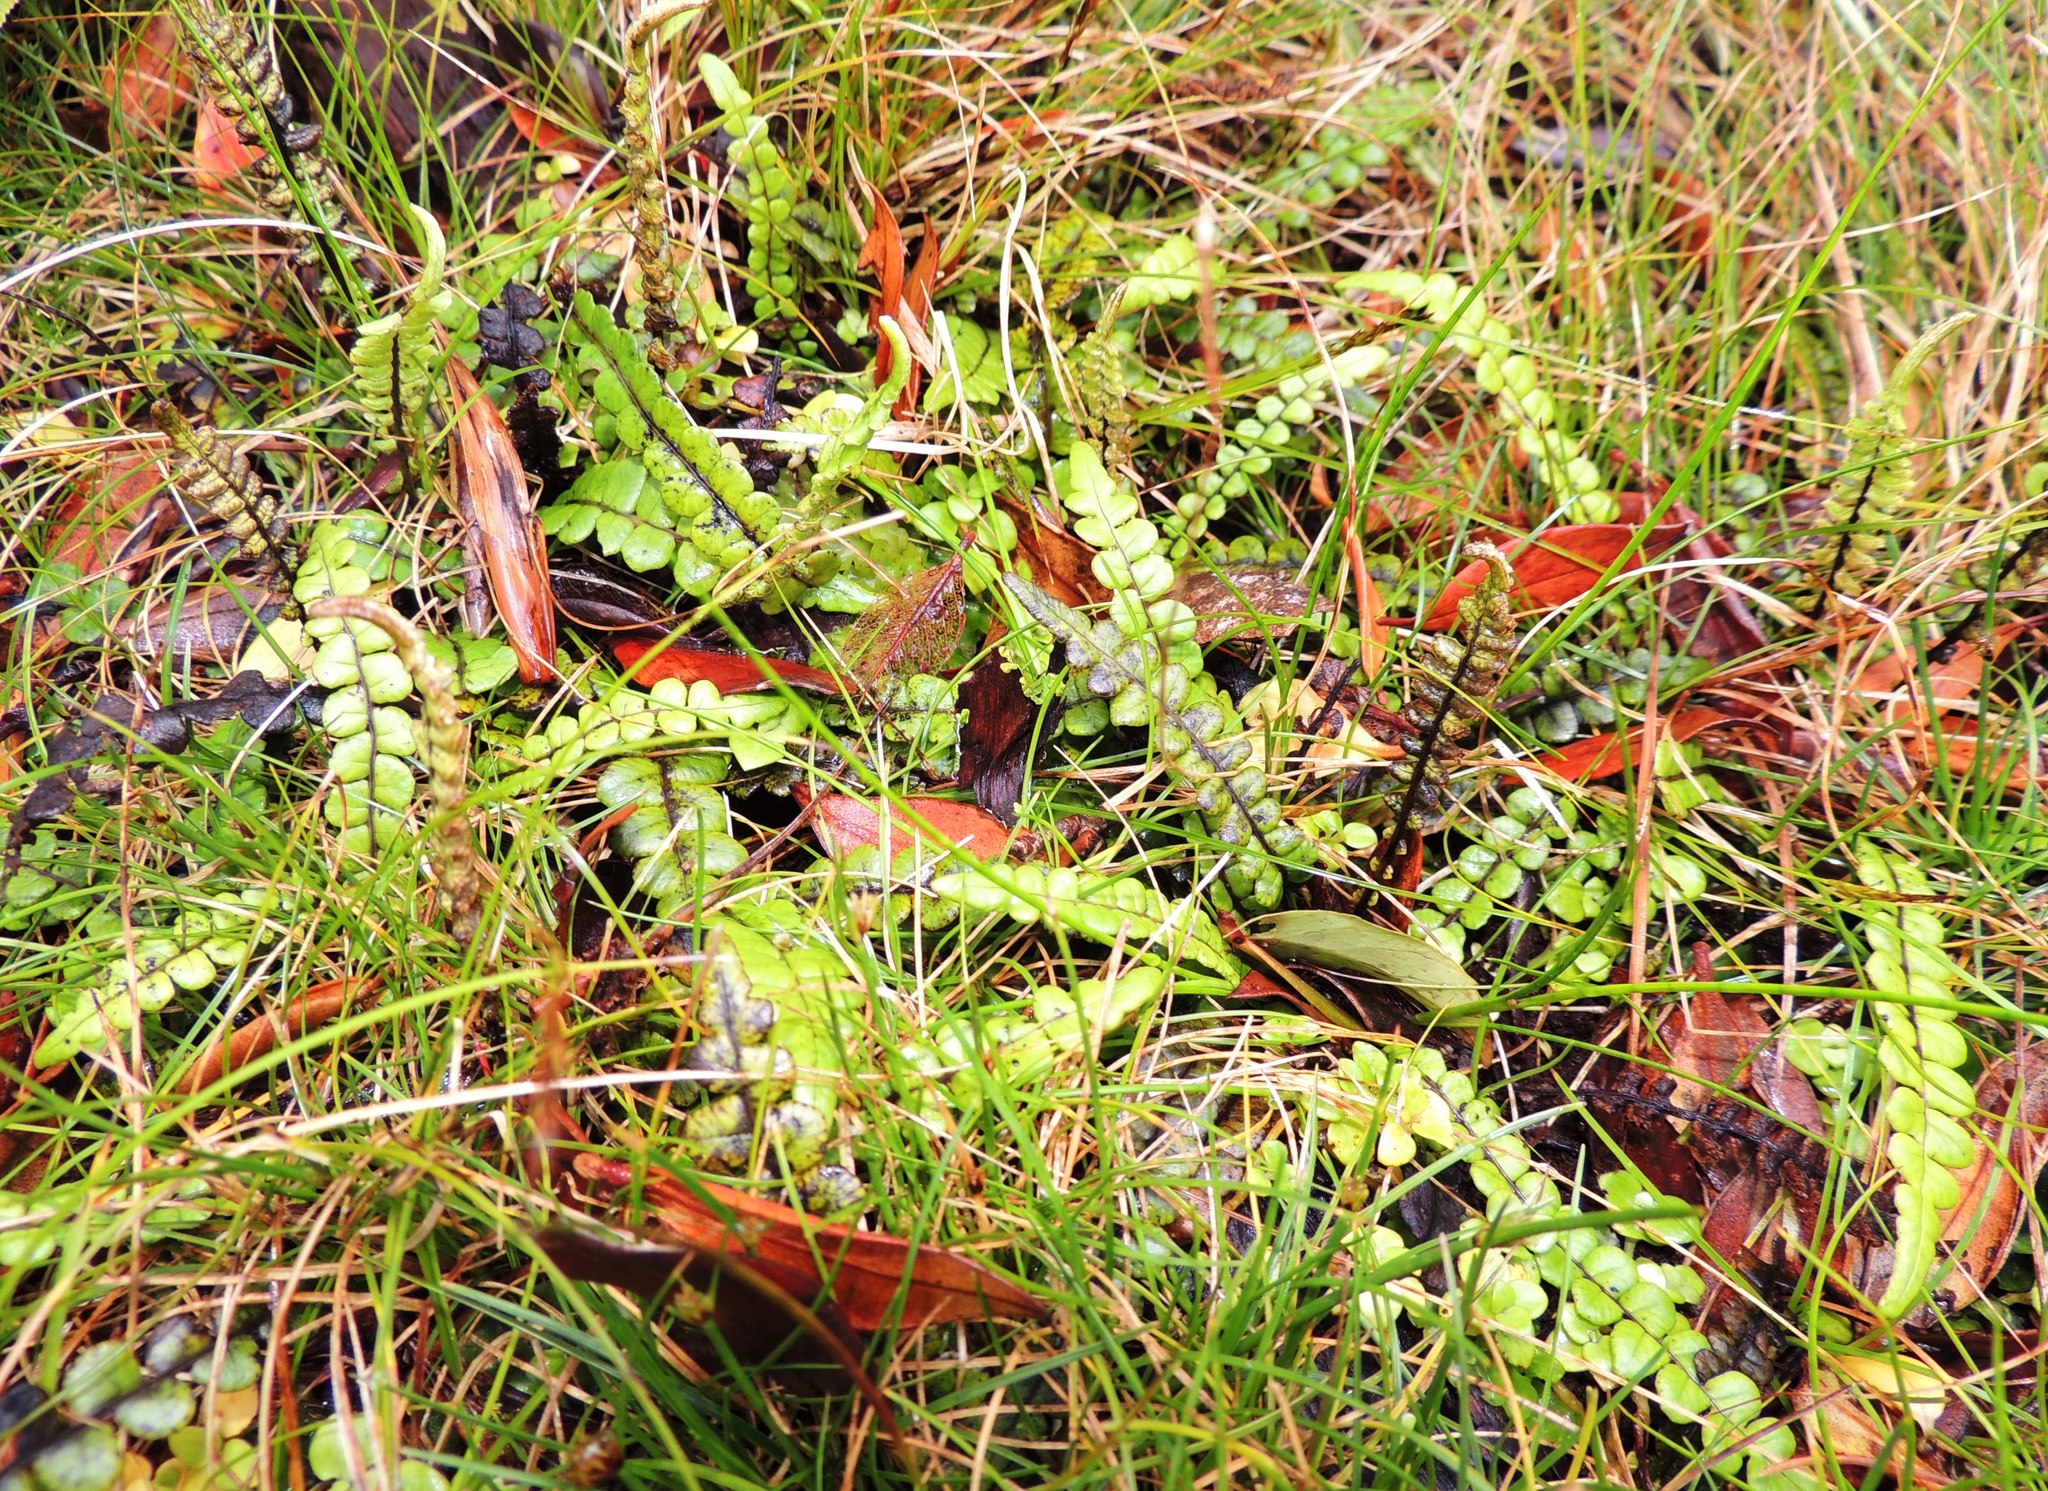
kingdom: Plantae
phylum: Tracheophyta
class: Polypodiopsida
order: Polypodiales
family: Blechnaceae
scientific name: Blechnaceae
